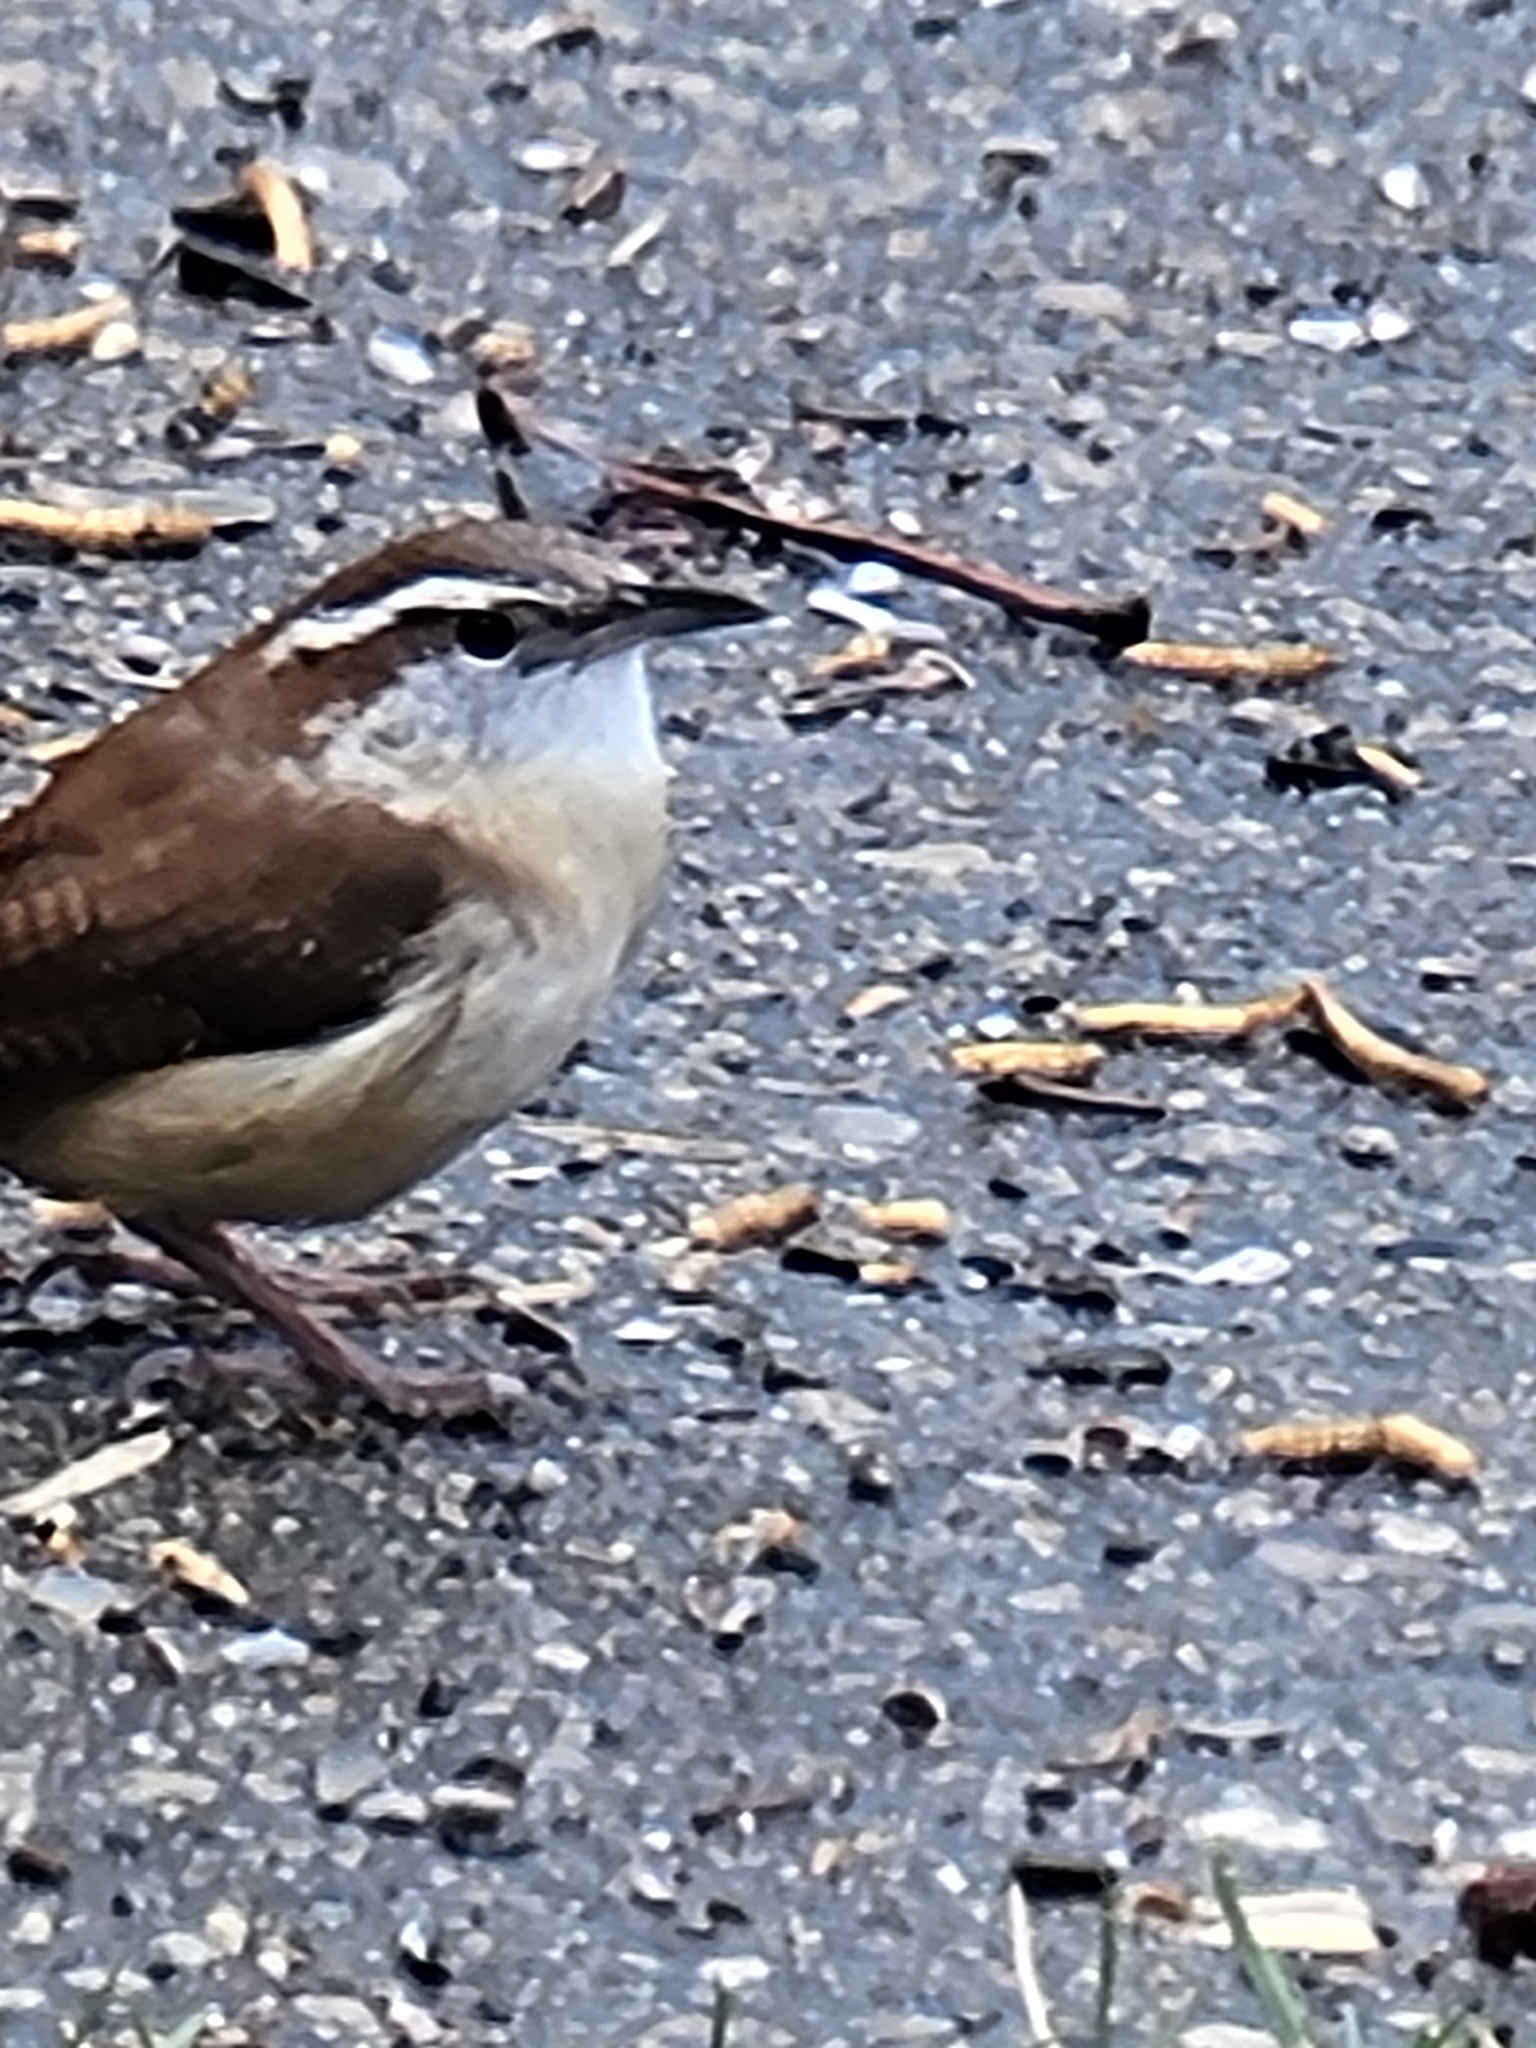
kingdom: Animalia
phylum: Chordata
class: Aves
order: Passeriformes
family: Troglodytidae
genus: Thryothorus
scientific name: Thryothorus ludovicianus
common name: Carolina wren
